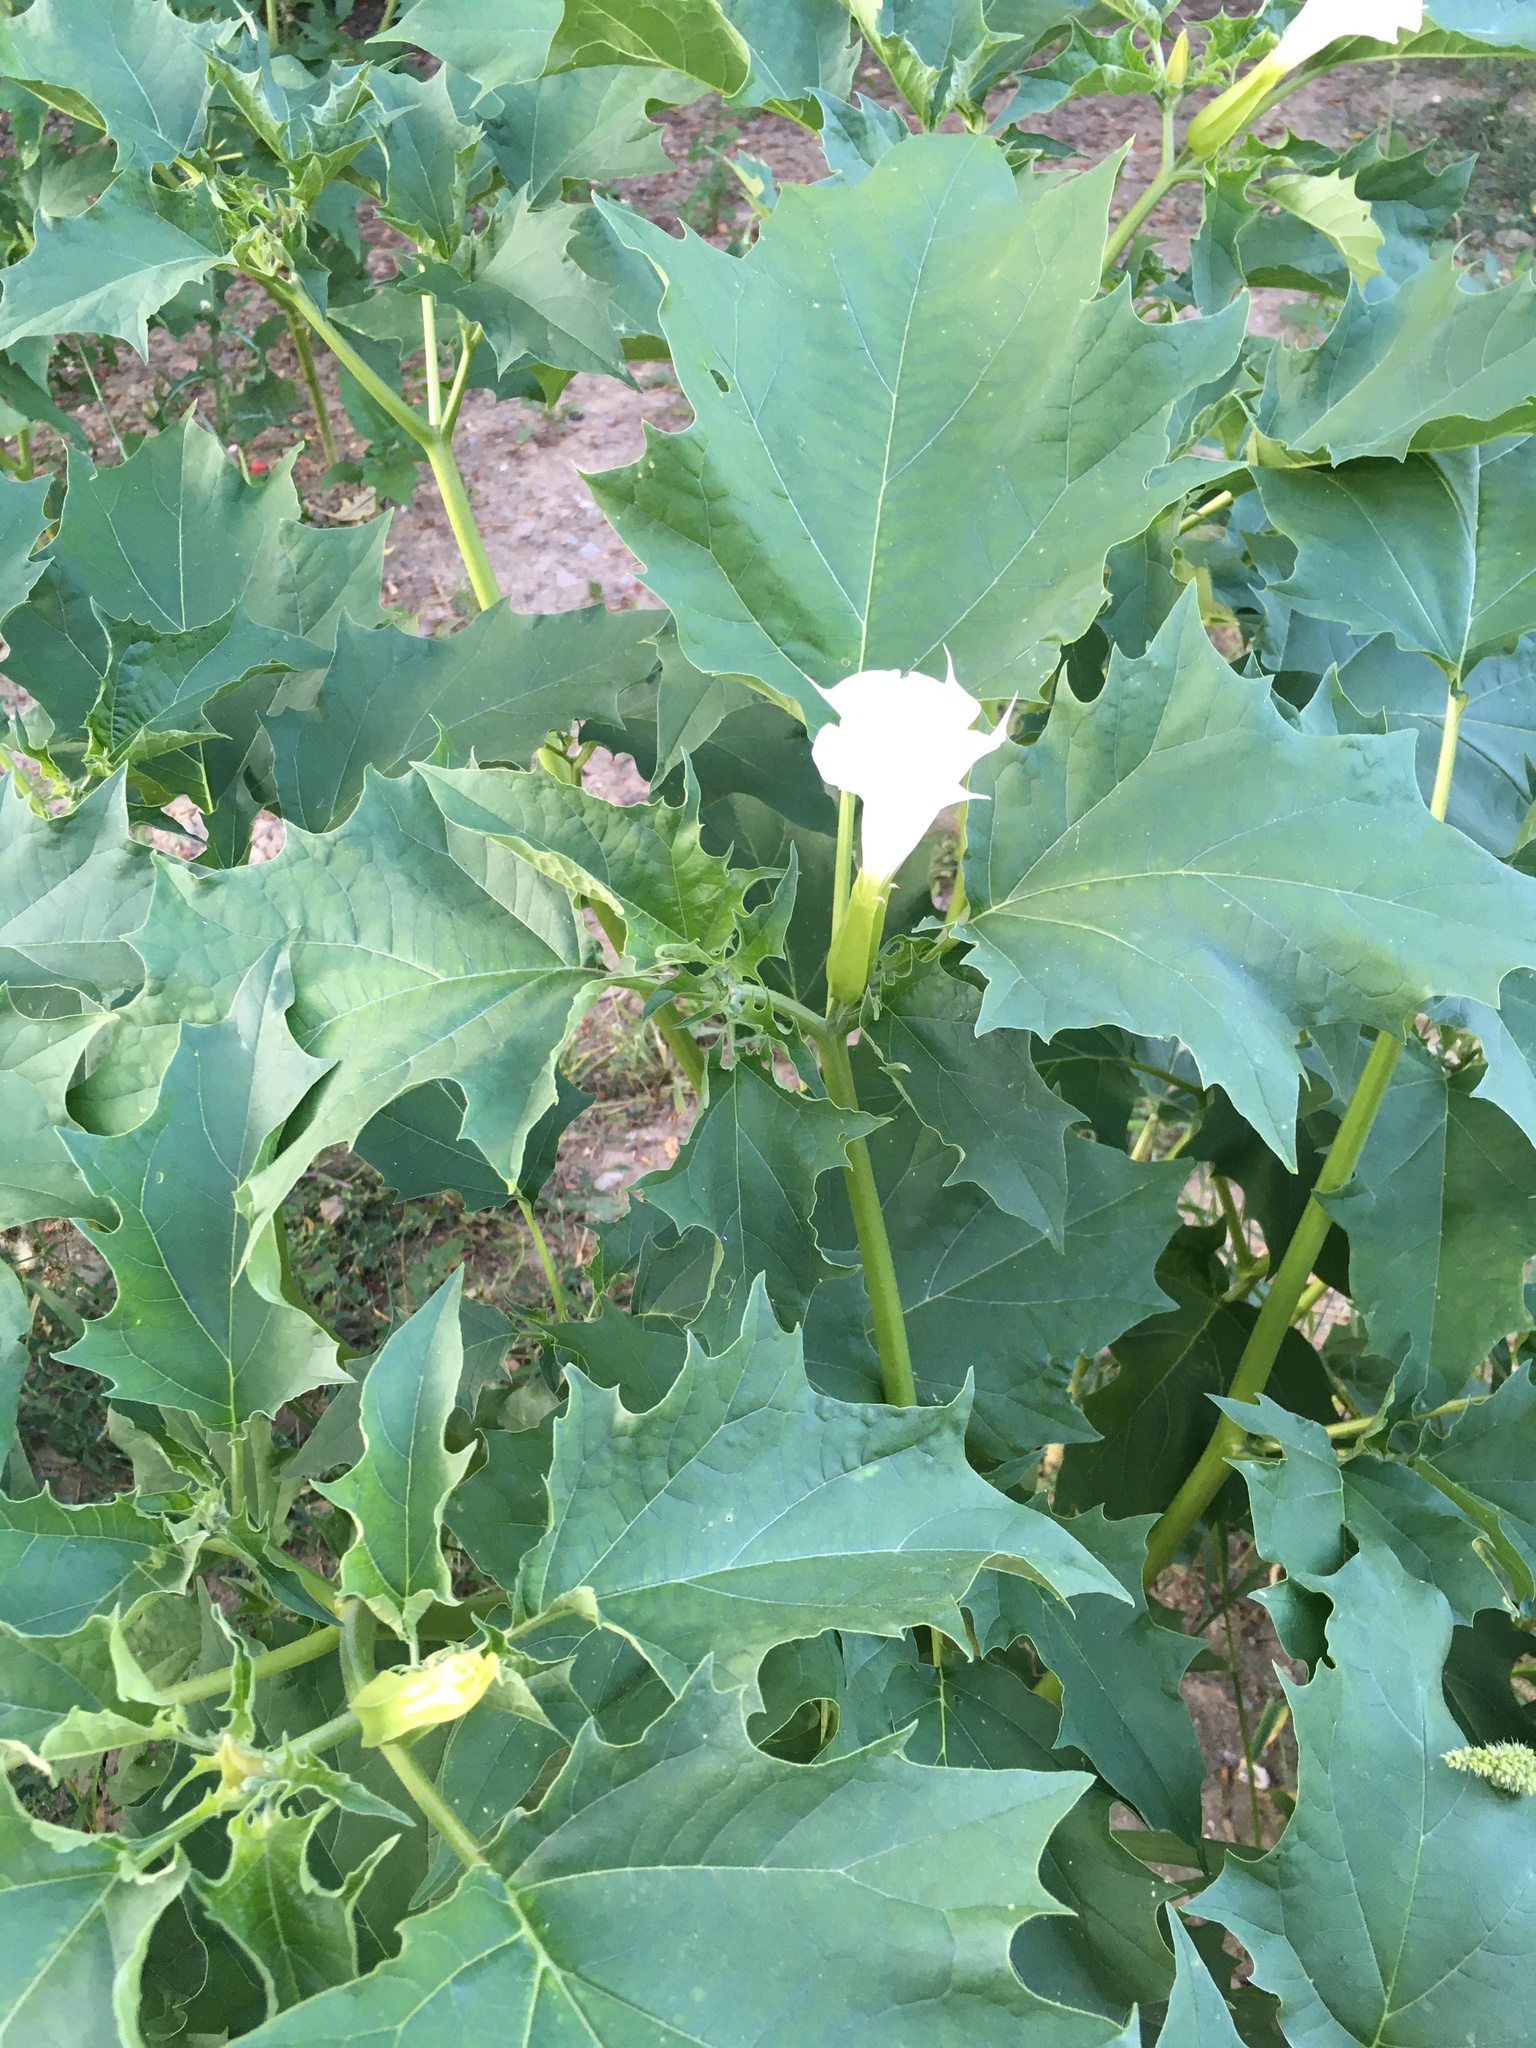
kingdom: Plantae
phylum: Tracheophyta
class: Magnoliopsida
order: Solanales
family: Solanaceae
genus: Datura
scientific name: Datura stramonium
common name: Thorn-apple
